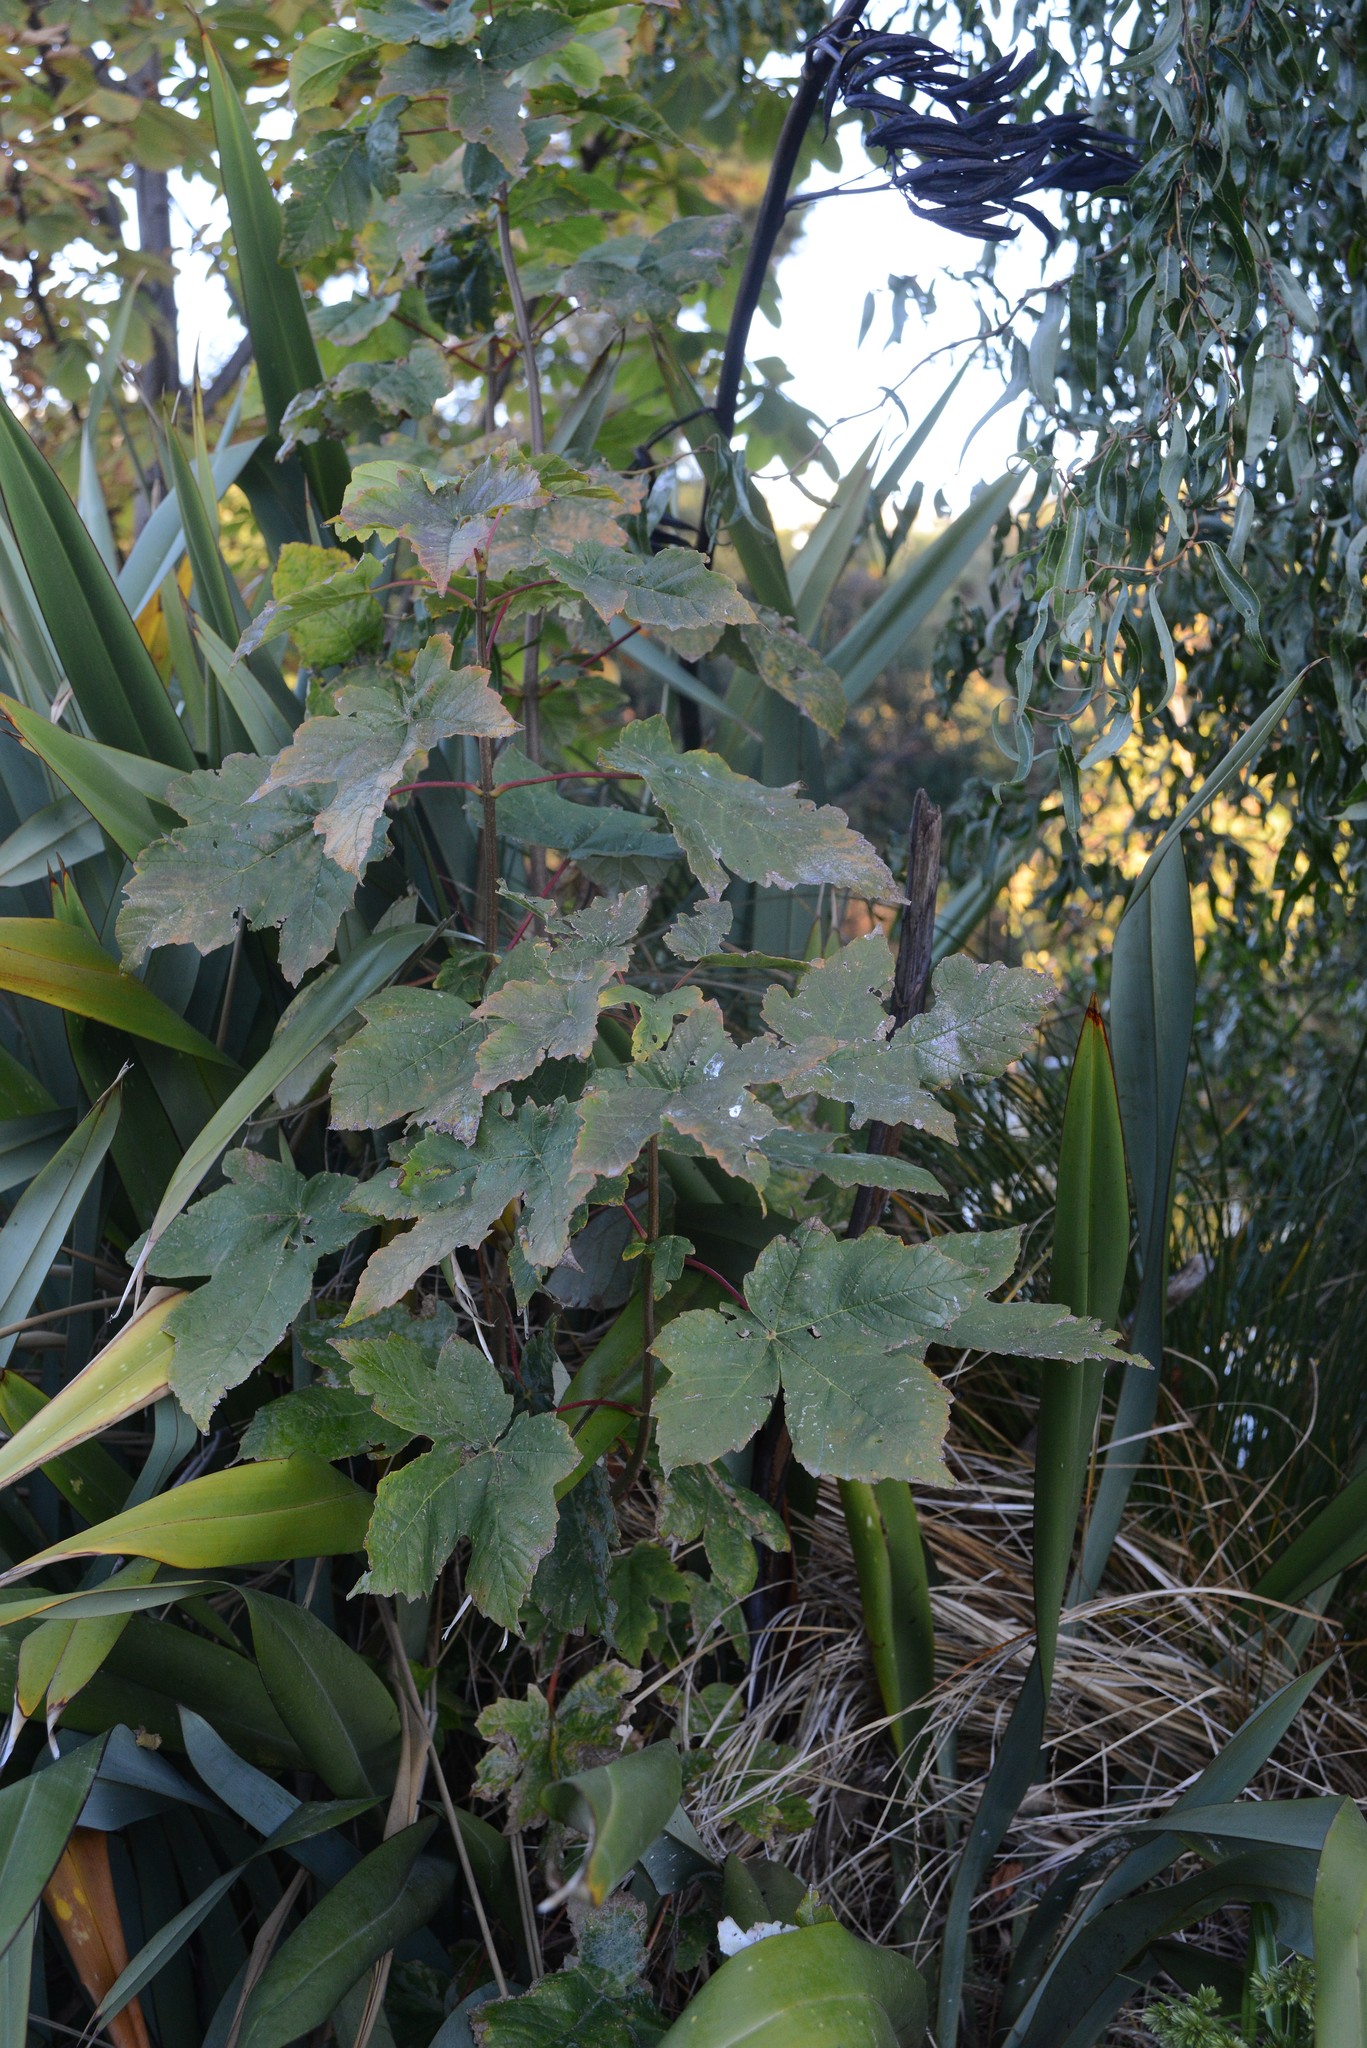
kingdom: Plantae
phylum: Tracheophyta
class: Magnoliopsida
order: Sapindales
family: Sapindaceae
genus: Acer
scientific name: Acer pseudoplatanus
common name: Sycamore
